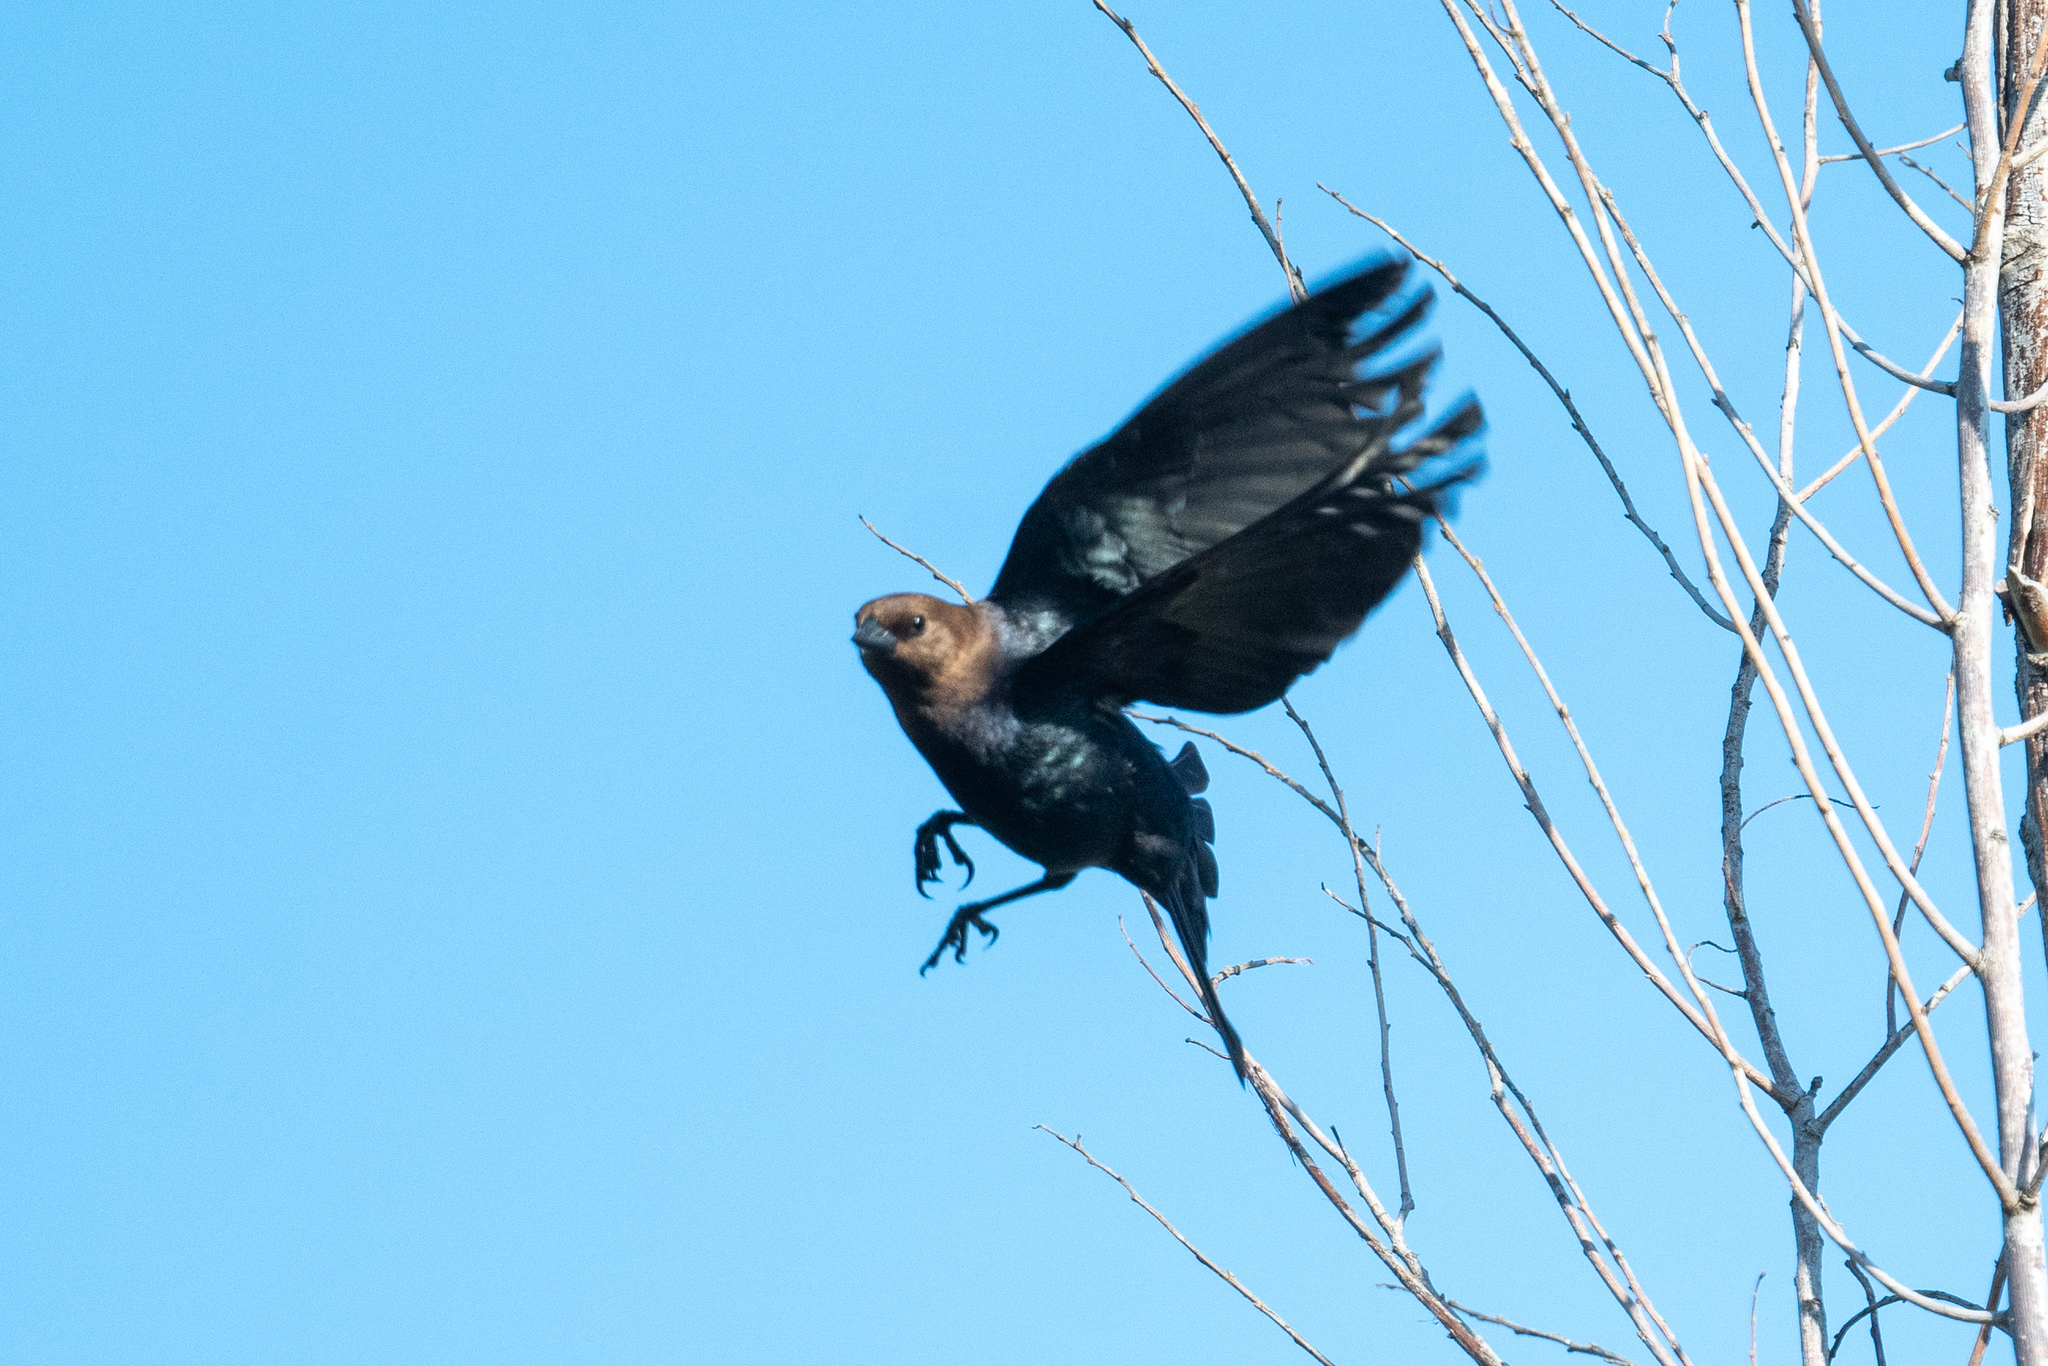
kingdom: Animalia
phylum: Chordata
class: Aves
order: Passeriformes
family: Icteridae
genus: Molothrus
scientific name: Molothrus ater
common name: Brown-headed cowbird
